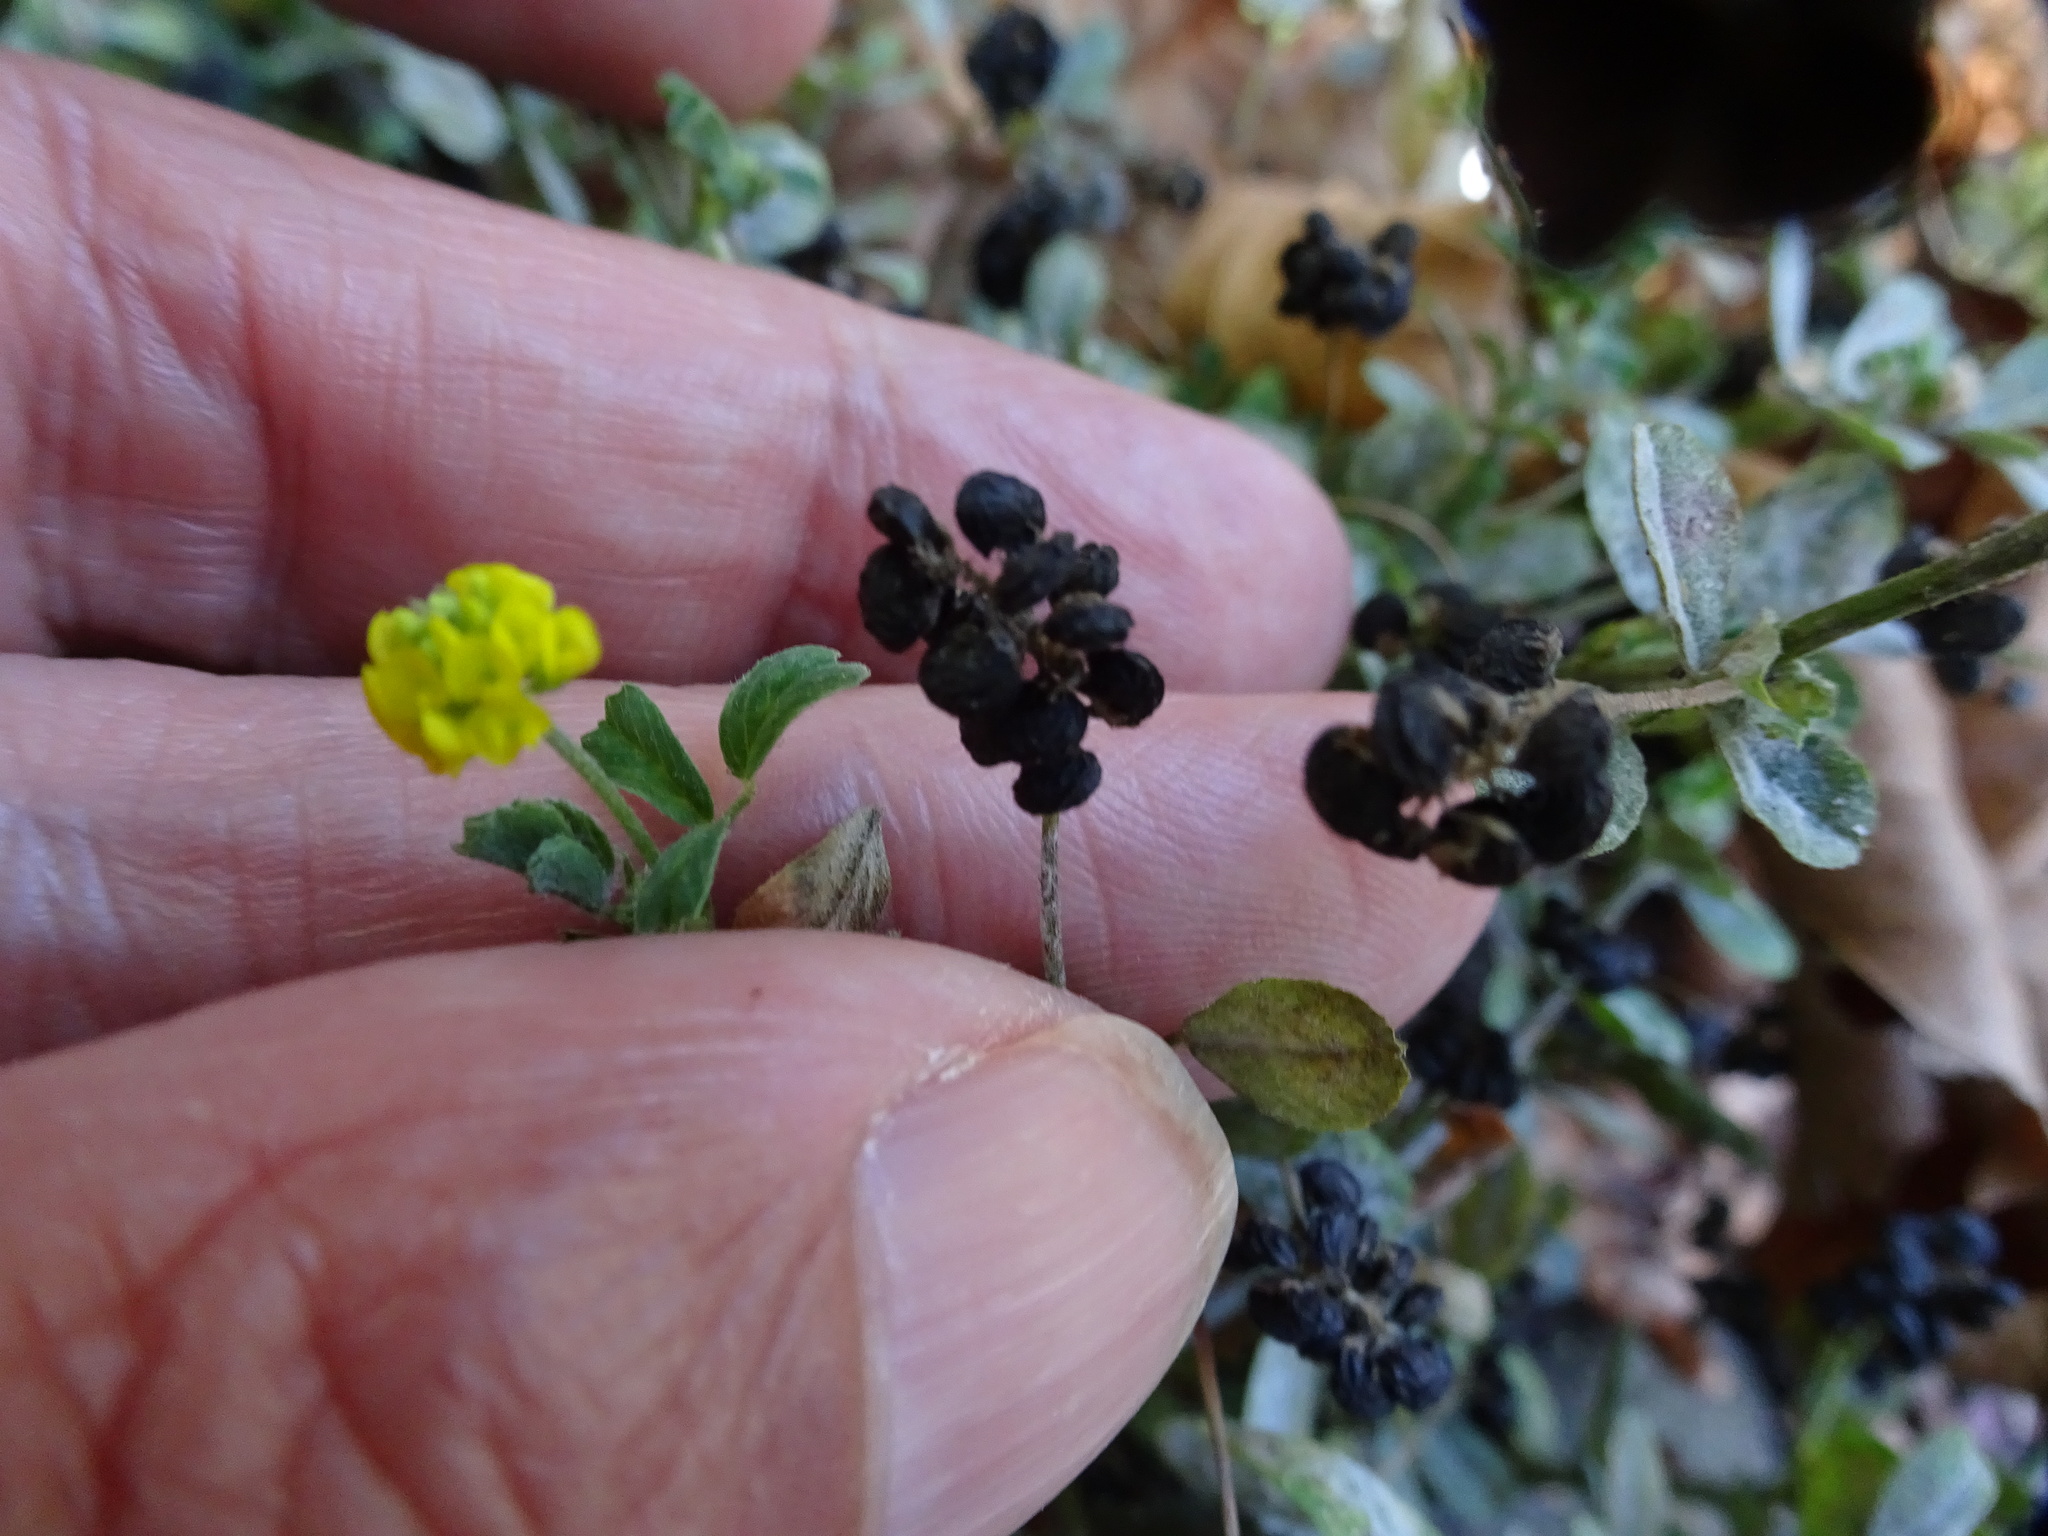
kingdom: Plantae
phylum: Tracheophyta
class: Magnoliopsida
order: Fabales
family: Fabaceae
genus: Medicago
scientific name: Medicago lupulina
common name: Black medick
